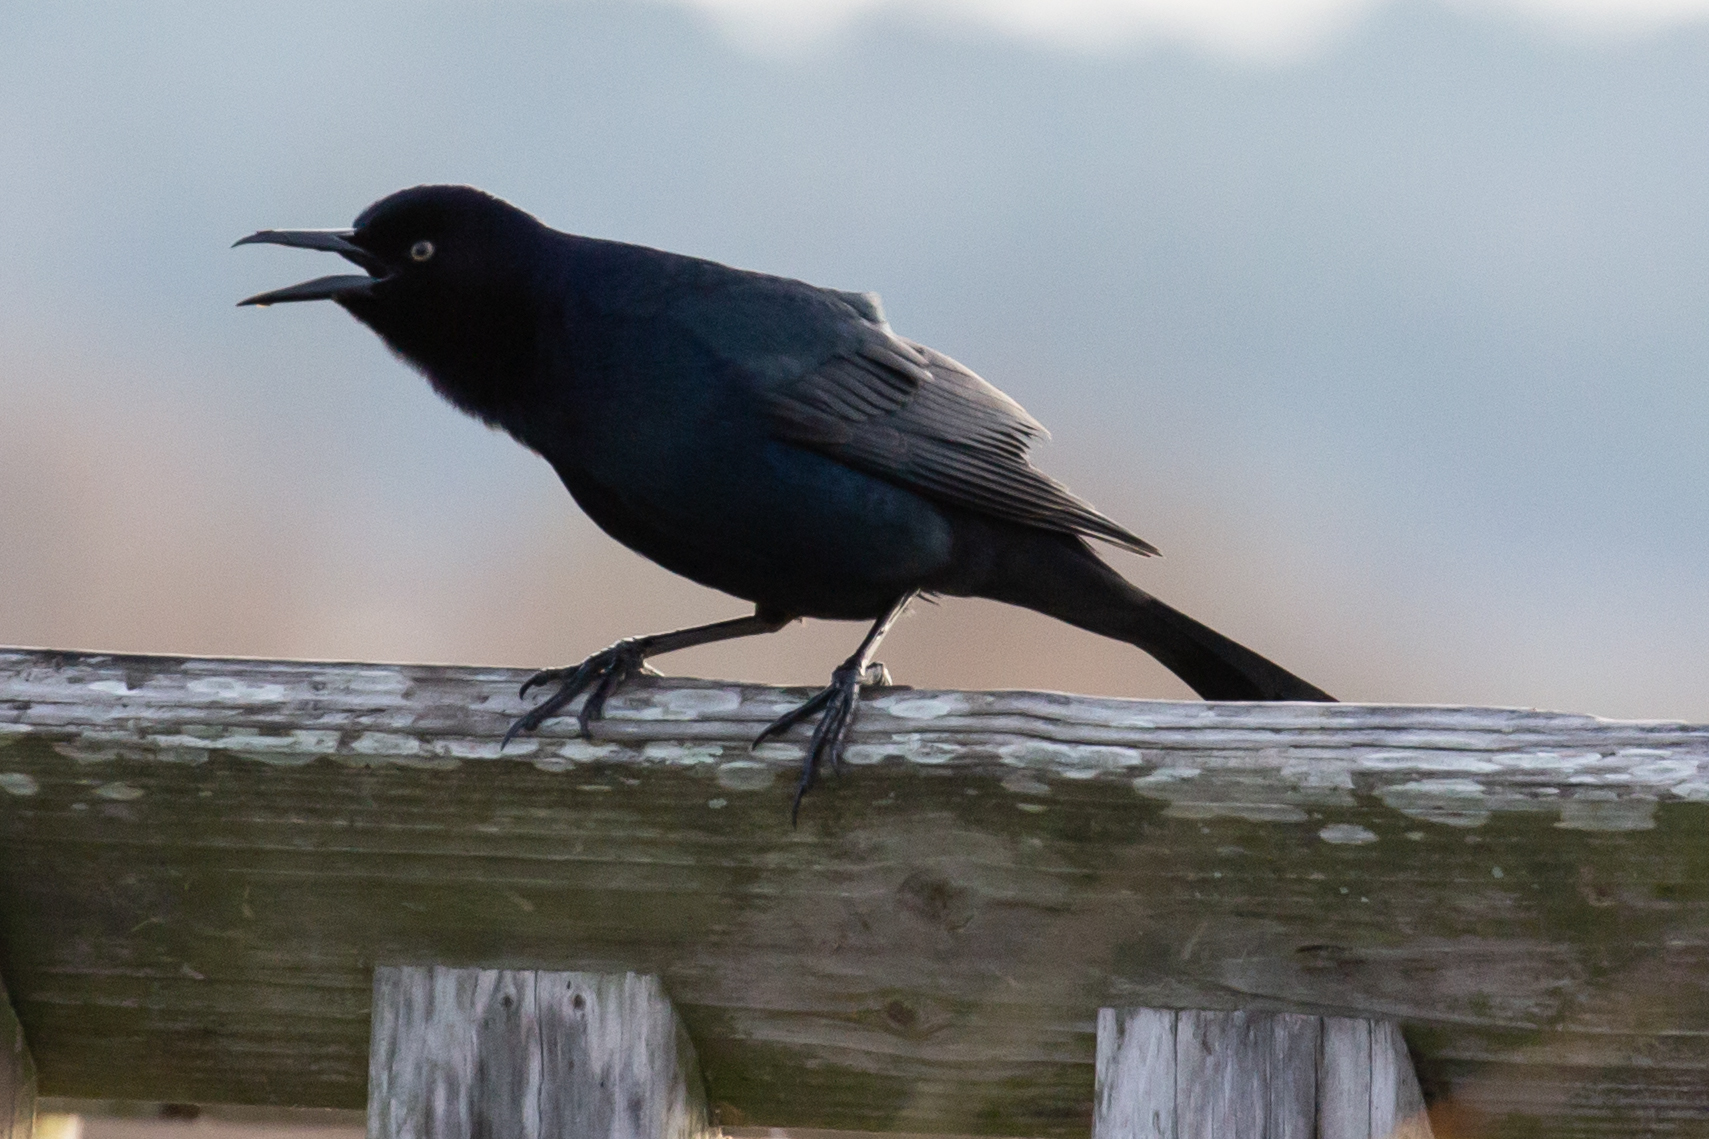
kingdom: Animalia
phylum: Chordata
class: Aves
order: Passeriformes
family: Icteridae
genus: Quiscalus
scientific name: Quiscalus major
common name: Boat-tailed grackle
